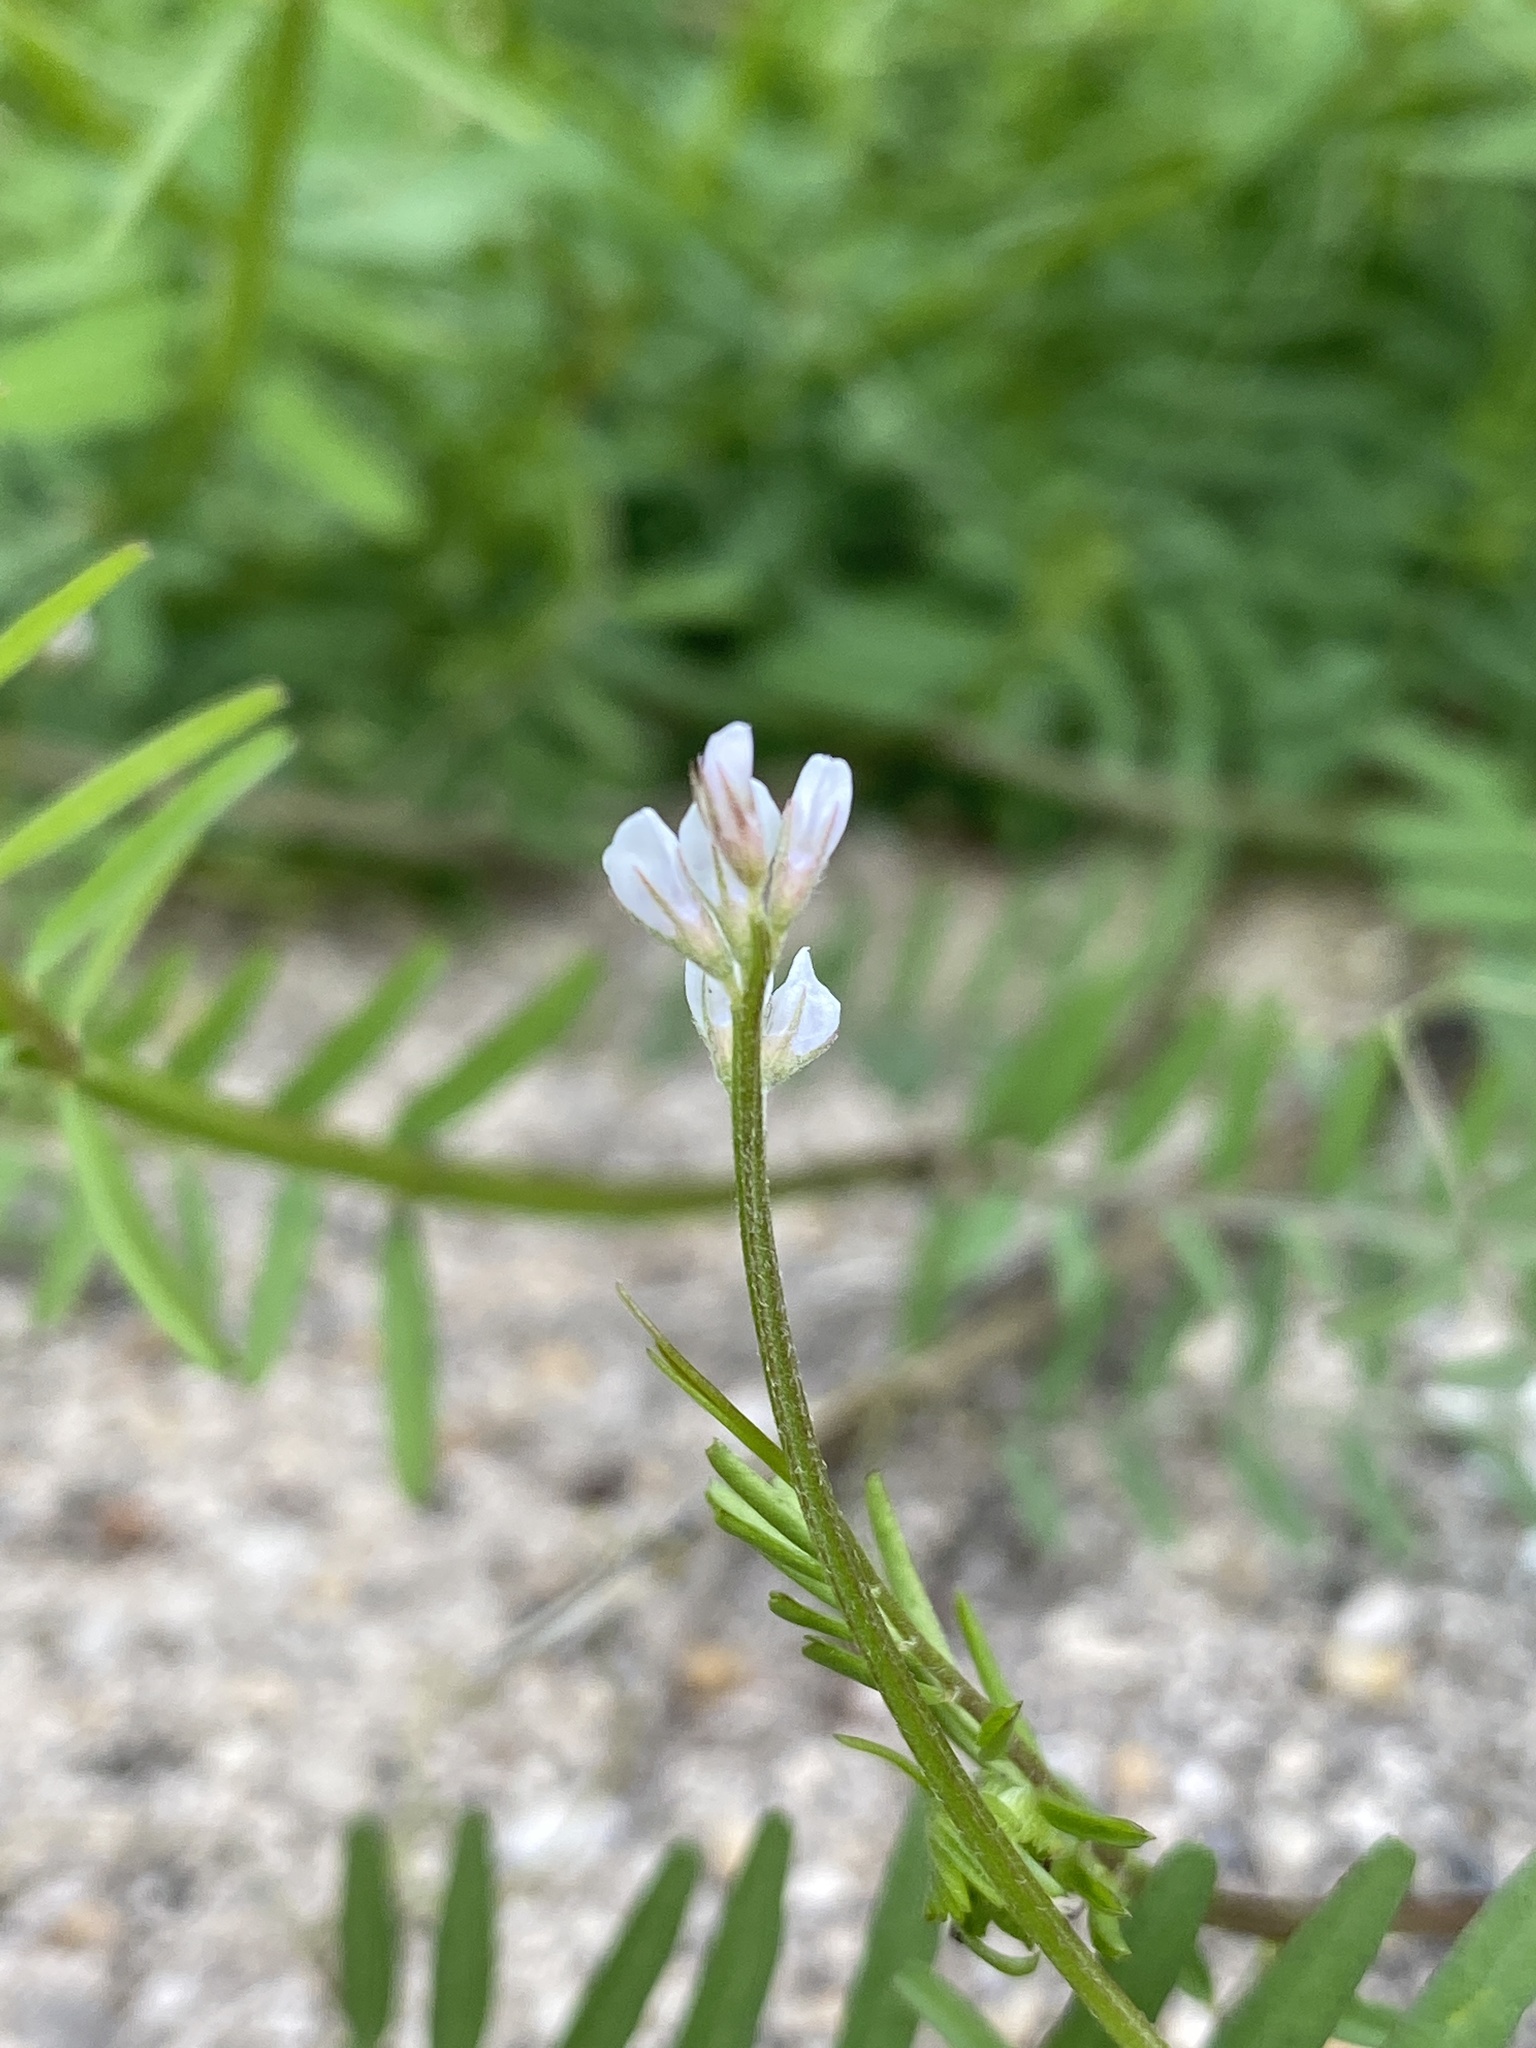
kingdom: Plantae
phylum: Tracheophyta
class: Magnoliopsida
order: Fabales
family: Fabaceae
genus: Vicia
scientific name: Vicia hirsuta
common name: Tiny vetch
